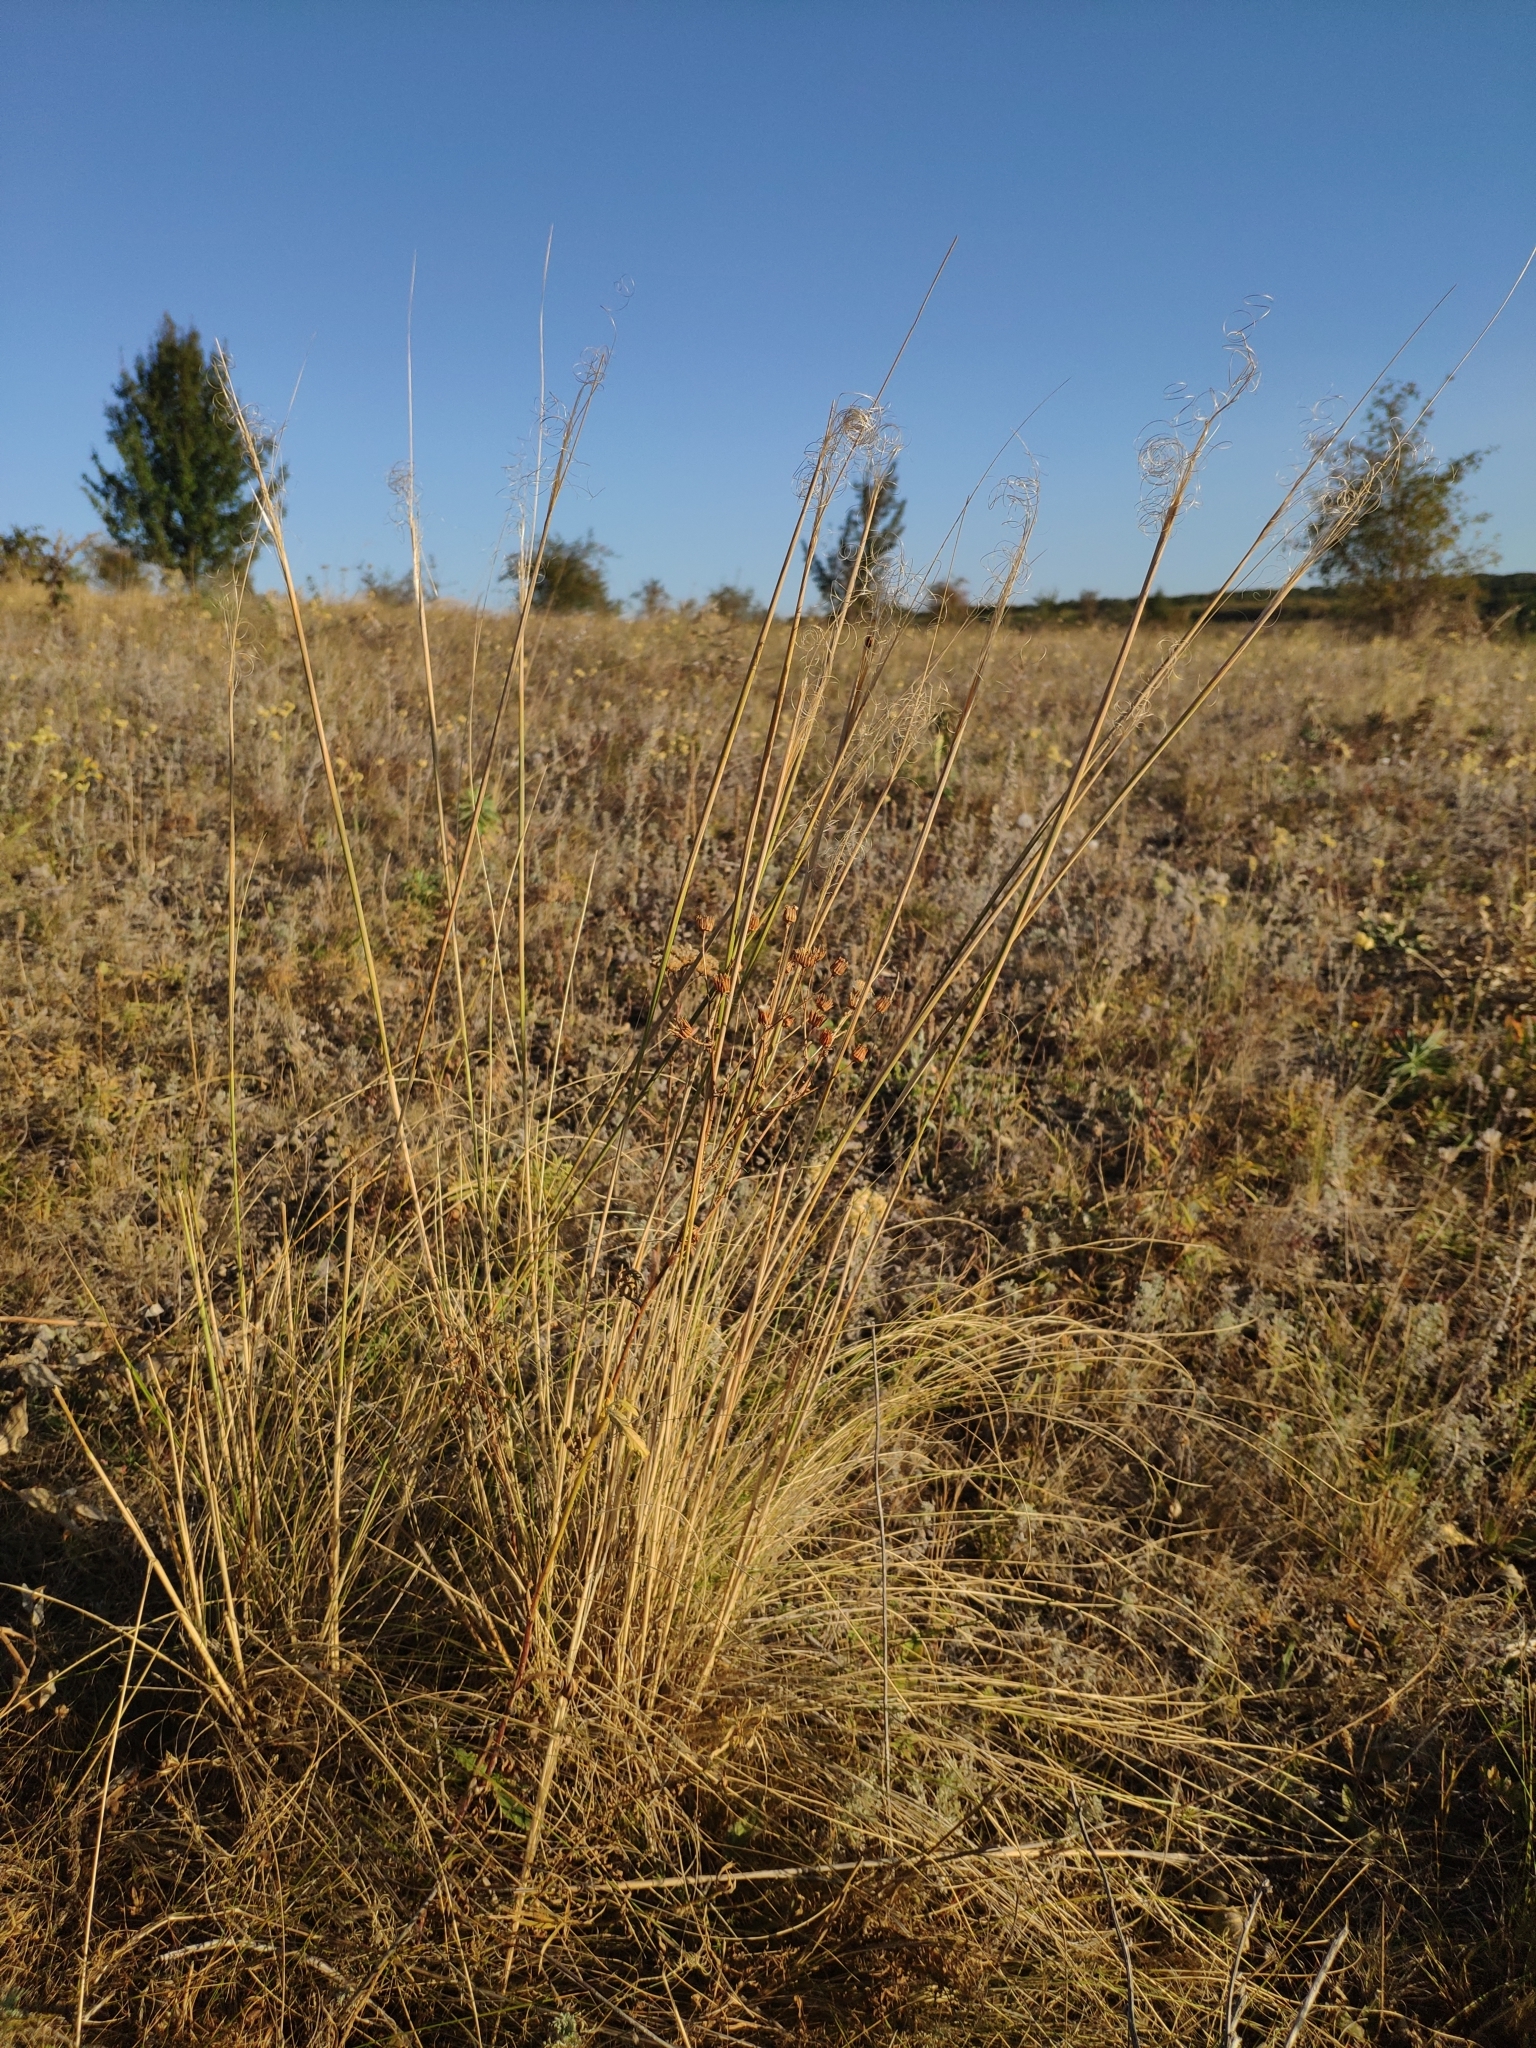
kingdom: Plantae
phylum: Tracheophyta
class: Liliopsida
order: Poales
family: Poaceae
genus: Stipa
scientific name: Stipa capillata
